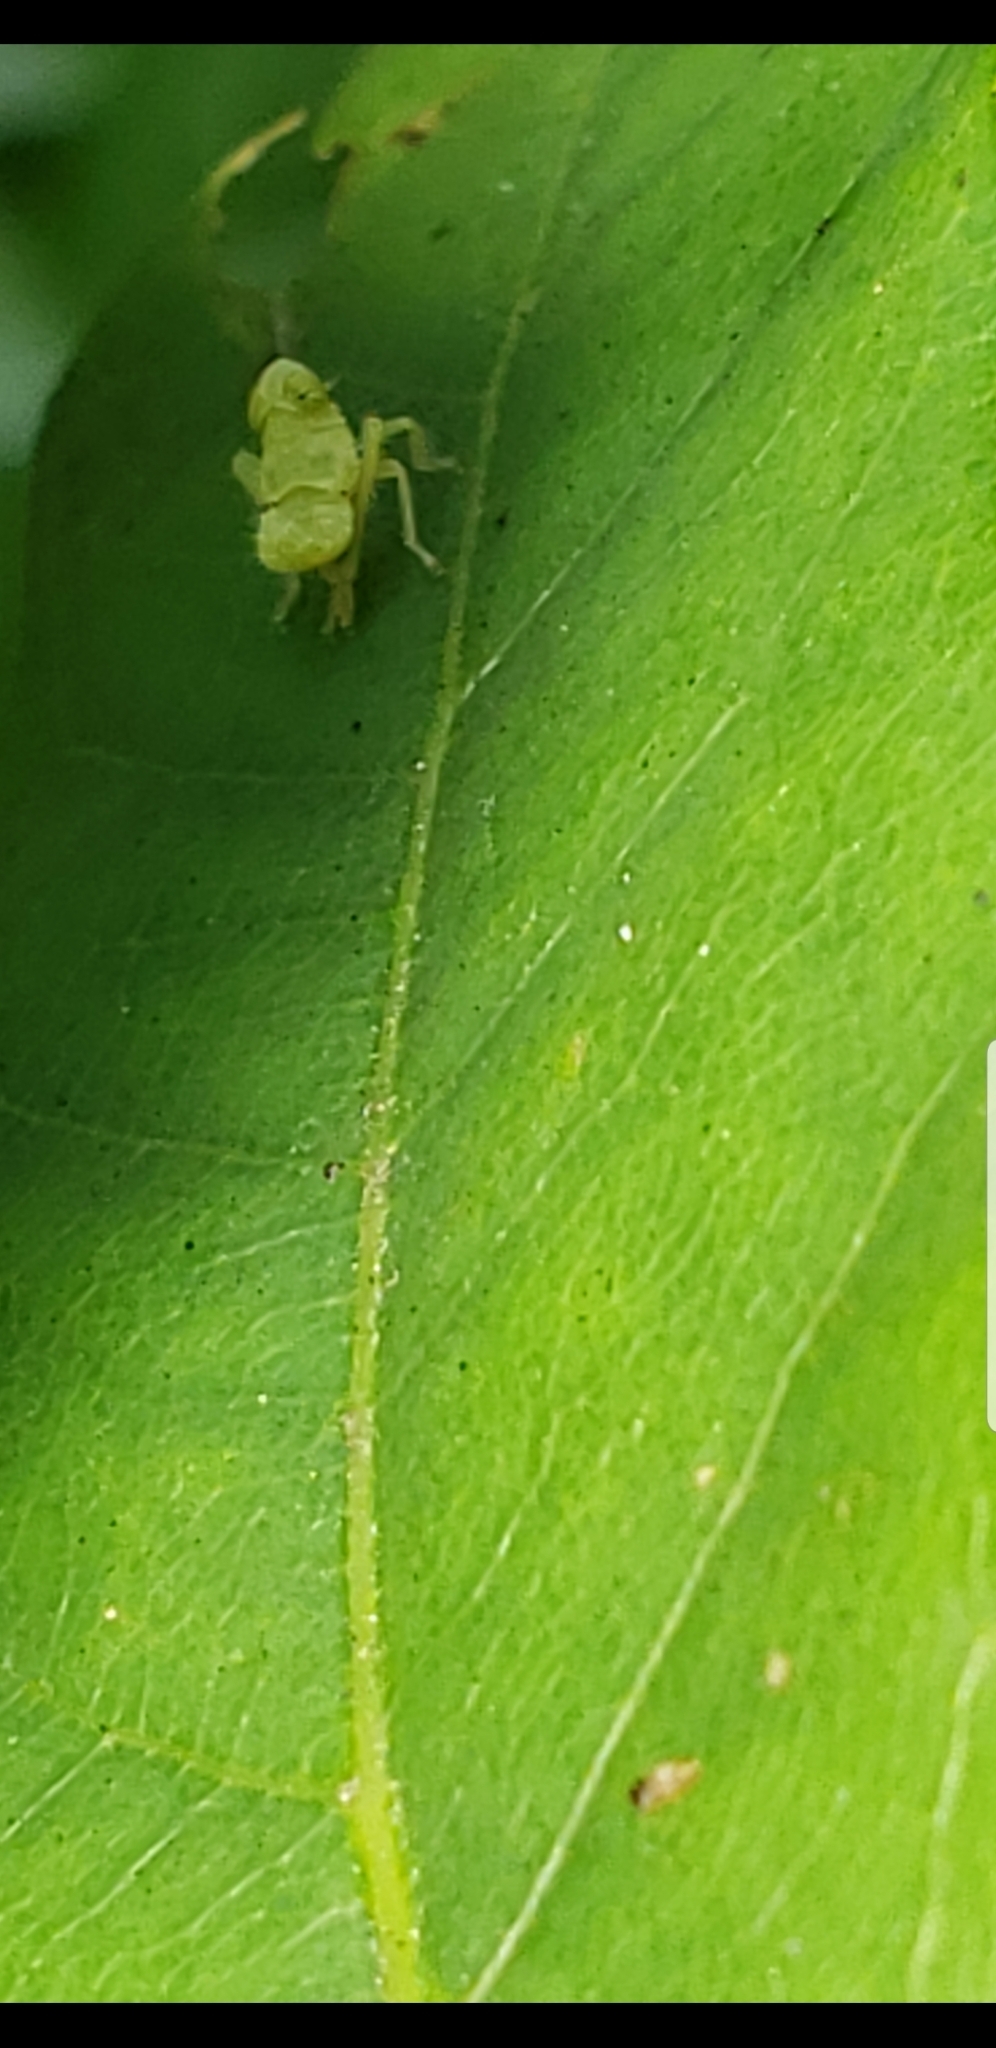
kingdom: Animalia
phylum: Arthropoda
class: Insecta
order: Hemiptera
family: Cicadellidae
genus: Jikradia
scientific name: Jikradia olitoria
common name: Coppery leafhopper
